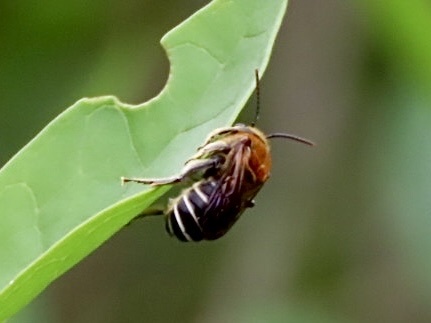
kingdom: Animalia
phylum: Arthropoda
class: Insecta
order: Hymenoptera
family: Halictidae
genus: Nomia
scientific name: Nomia thoracica
